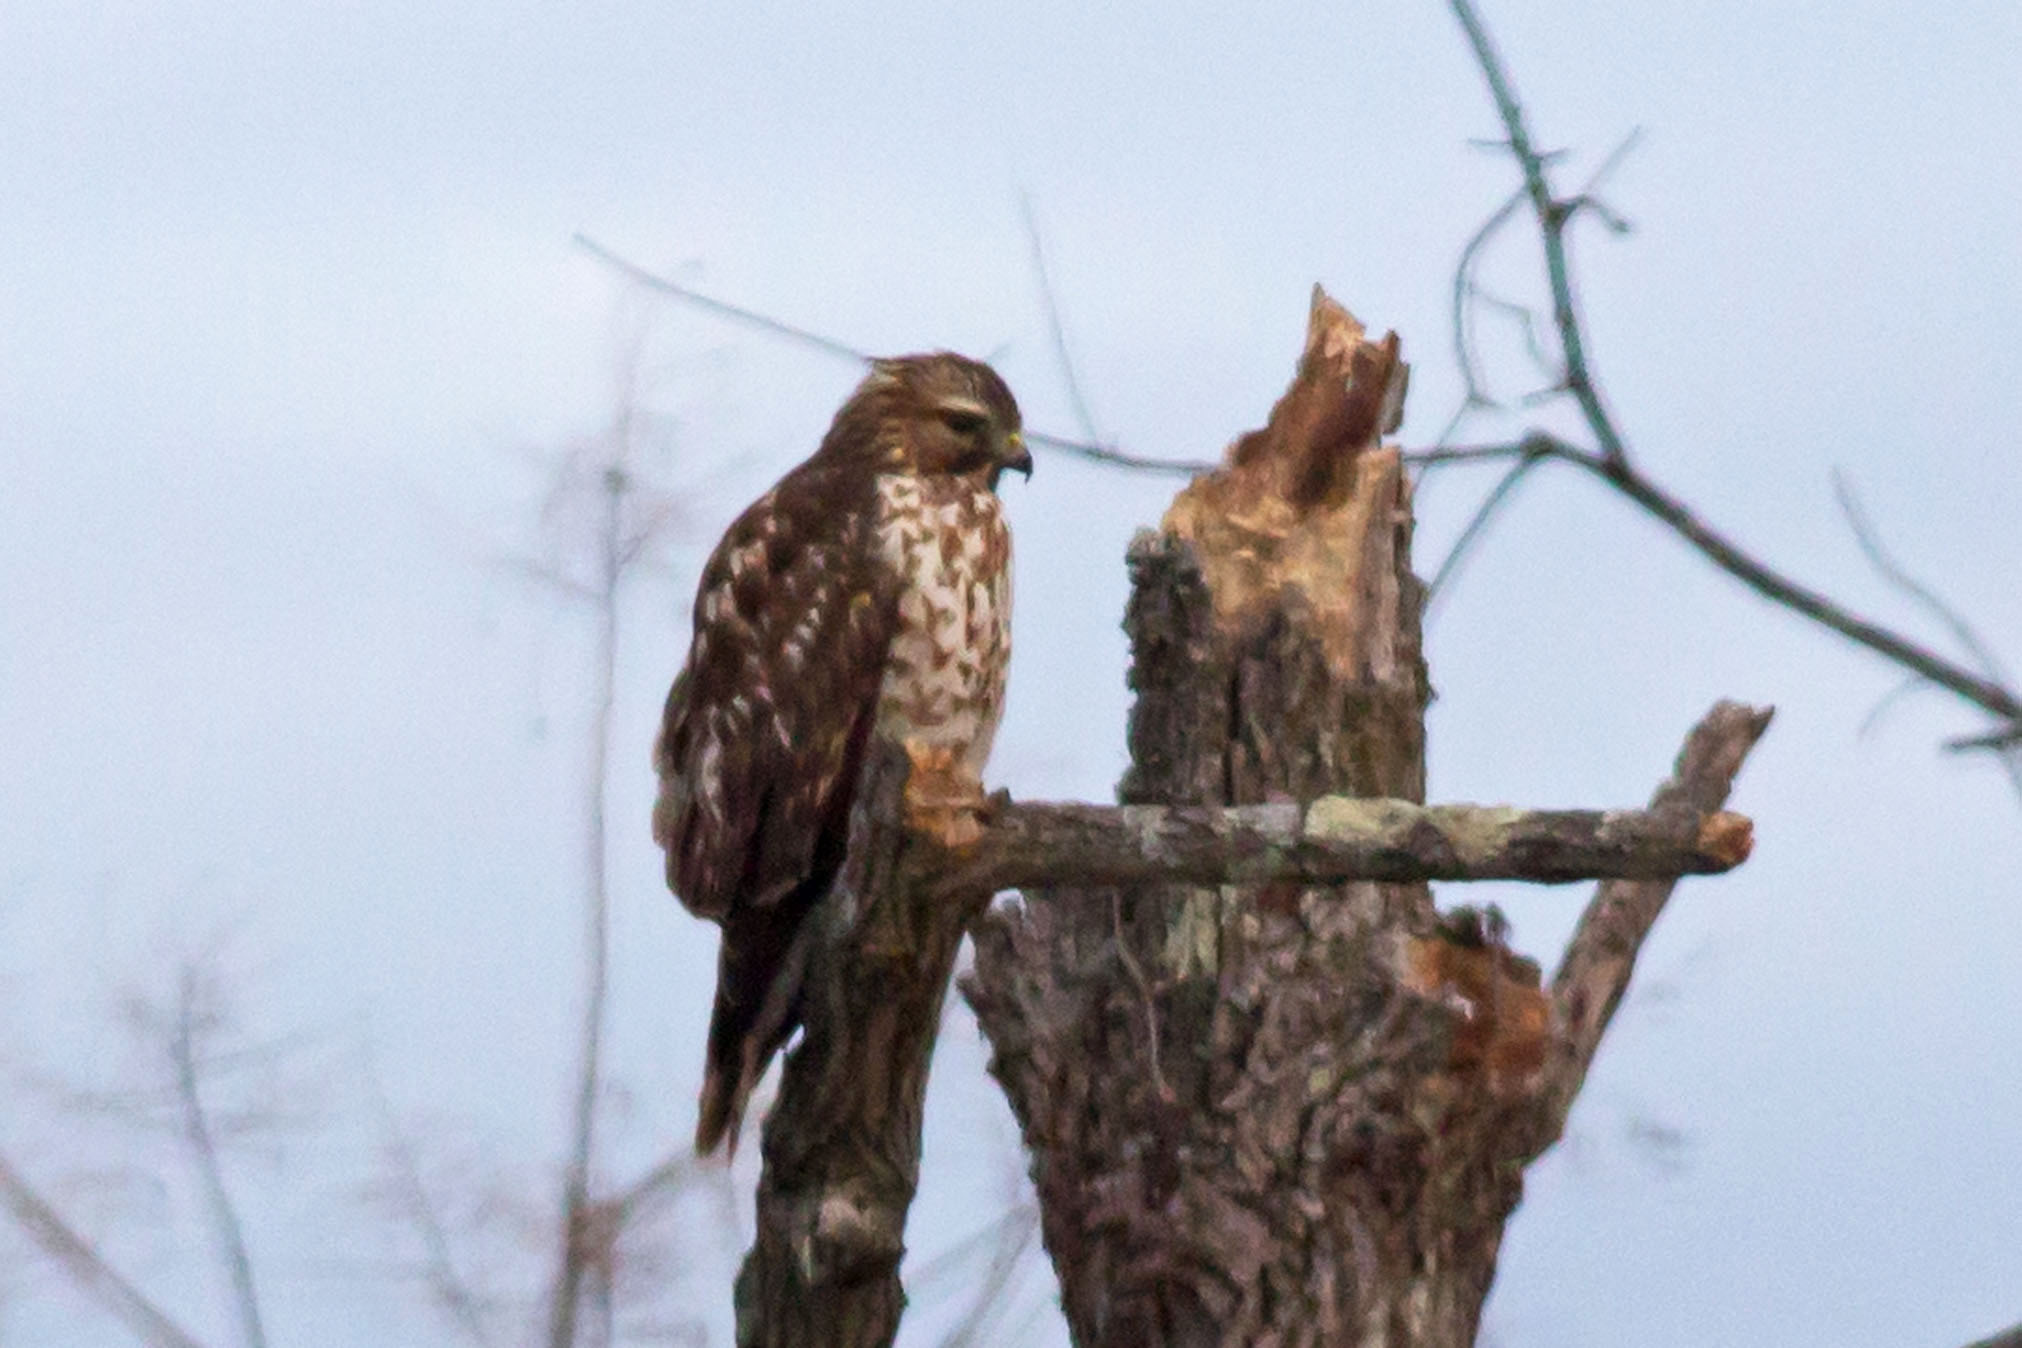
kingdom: Animalia
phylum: Chordata
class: Aves
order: Accipitriformes
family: Accipitridae
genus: Buteo
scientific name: Buteo lineatus
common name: Red-shouldered hawk
